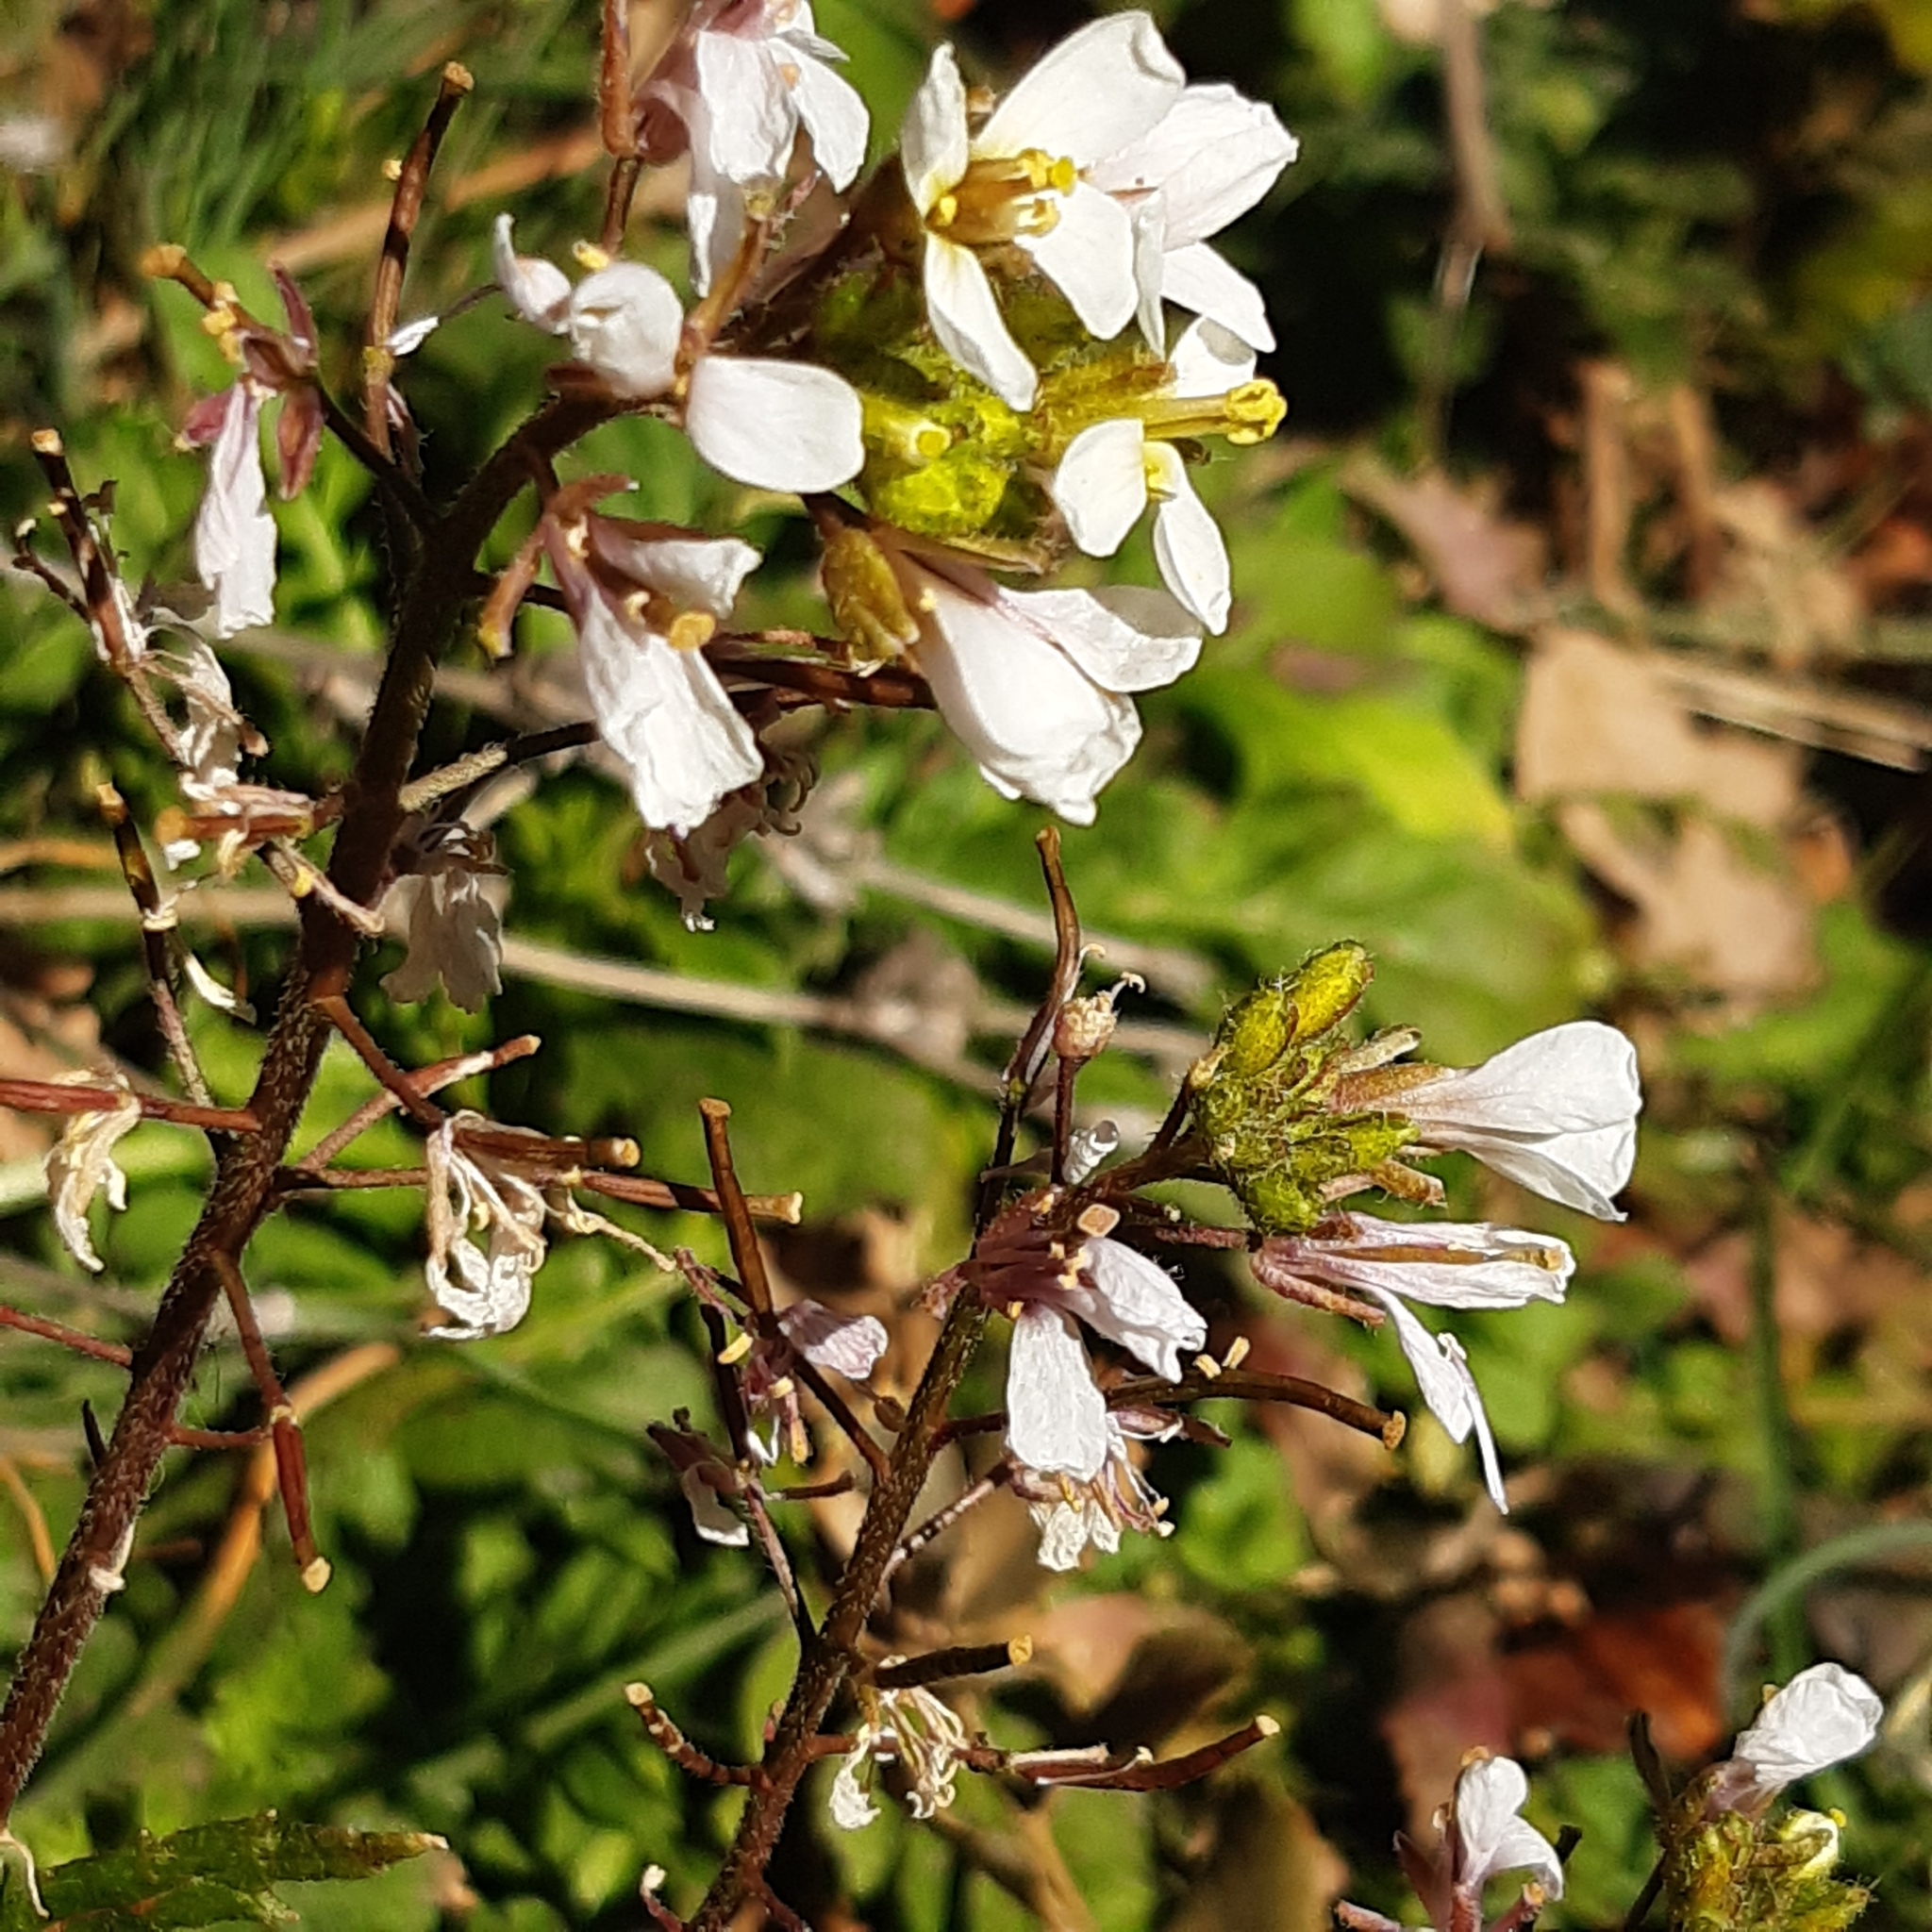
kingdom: Plantae
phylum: Tracheophyta
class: Magnoliopsida
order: Brassicales
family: Brassicaceae
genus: Diplotaxis
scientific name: Diplotaxis erucoides
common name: White rocket
